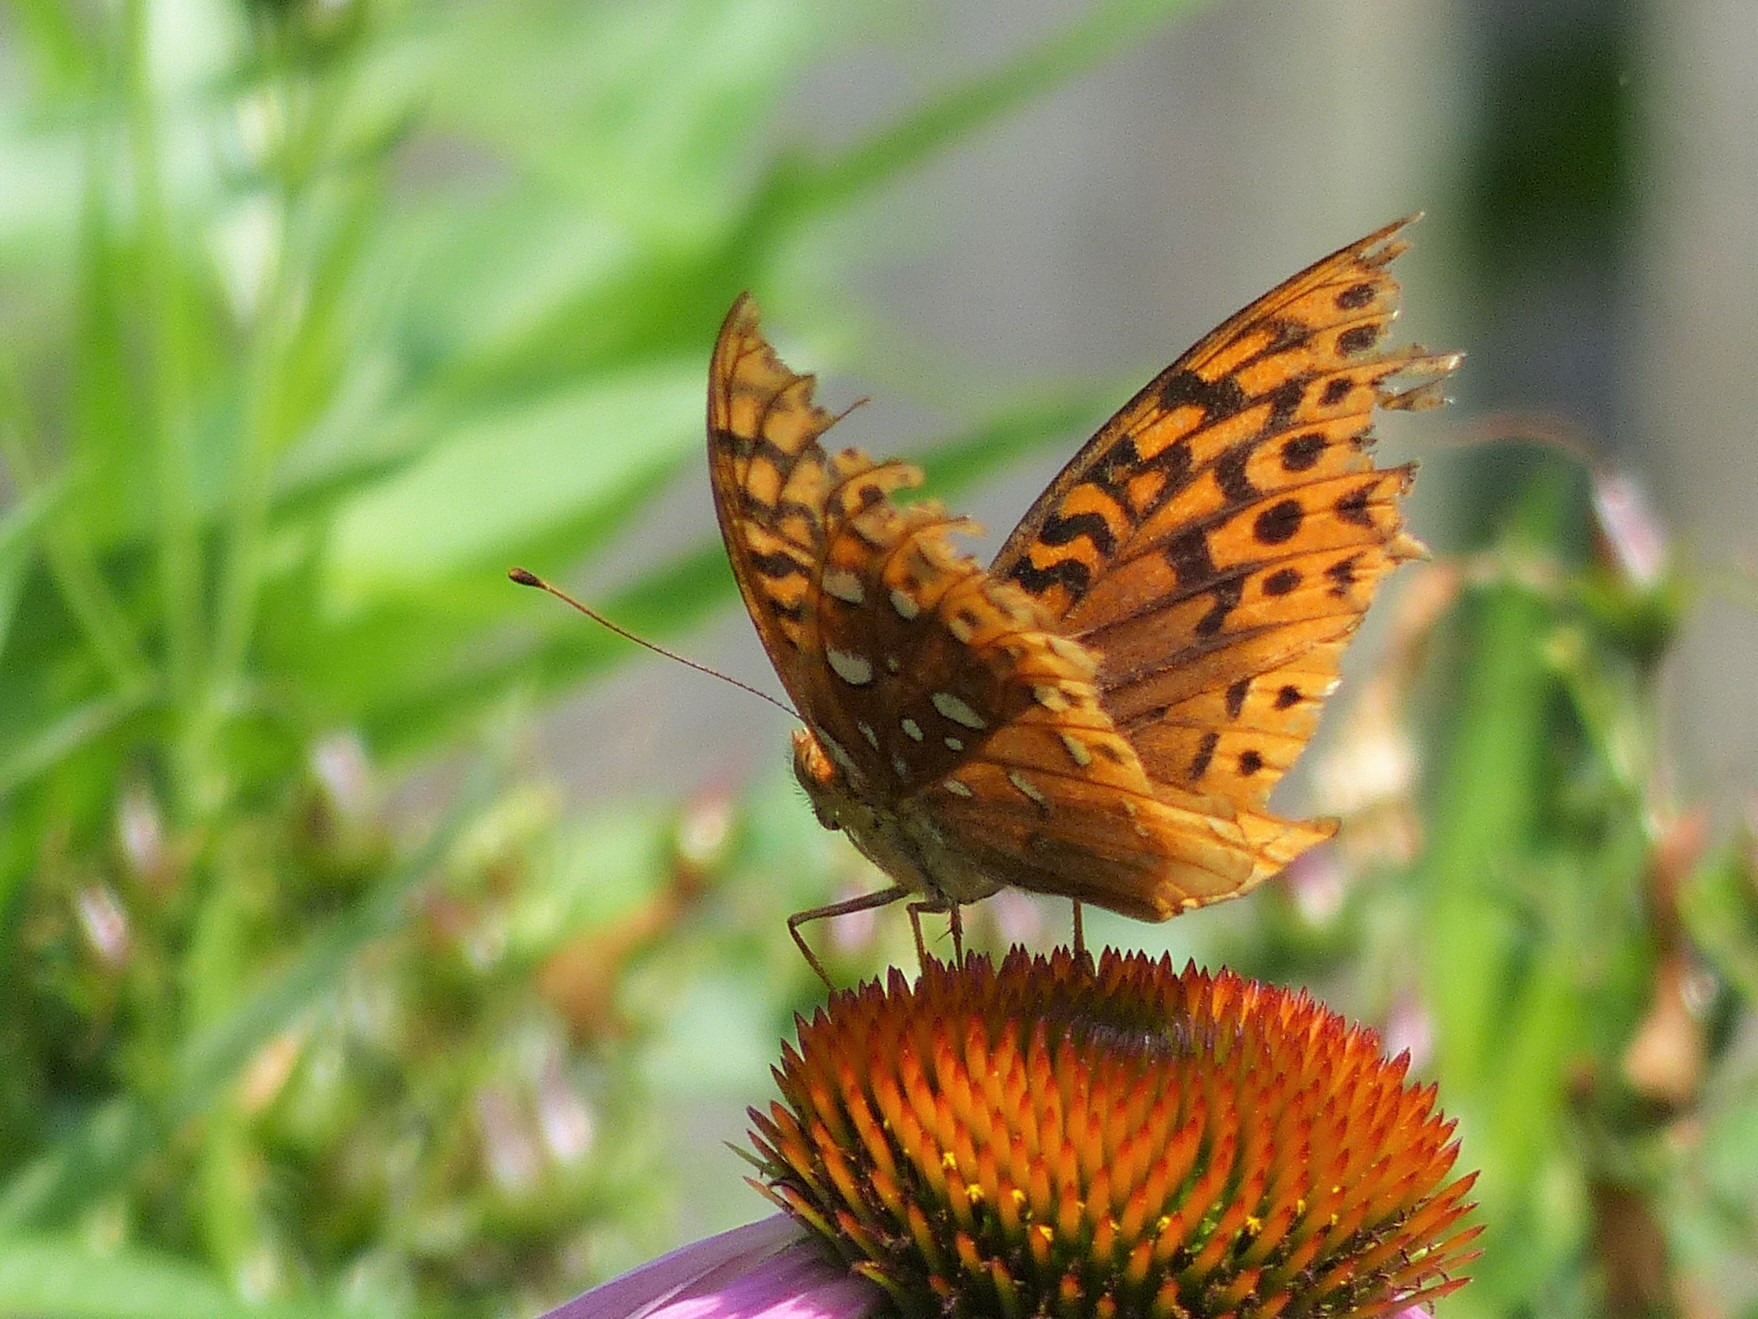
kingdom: Animalia
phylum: Arthropoda
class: Insecta
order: Lepidoptera
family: Nymphalidae
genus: Speyeria
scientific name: Speyeria cybele
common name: Great spangled fritillary
